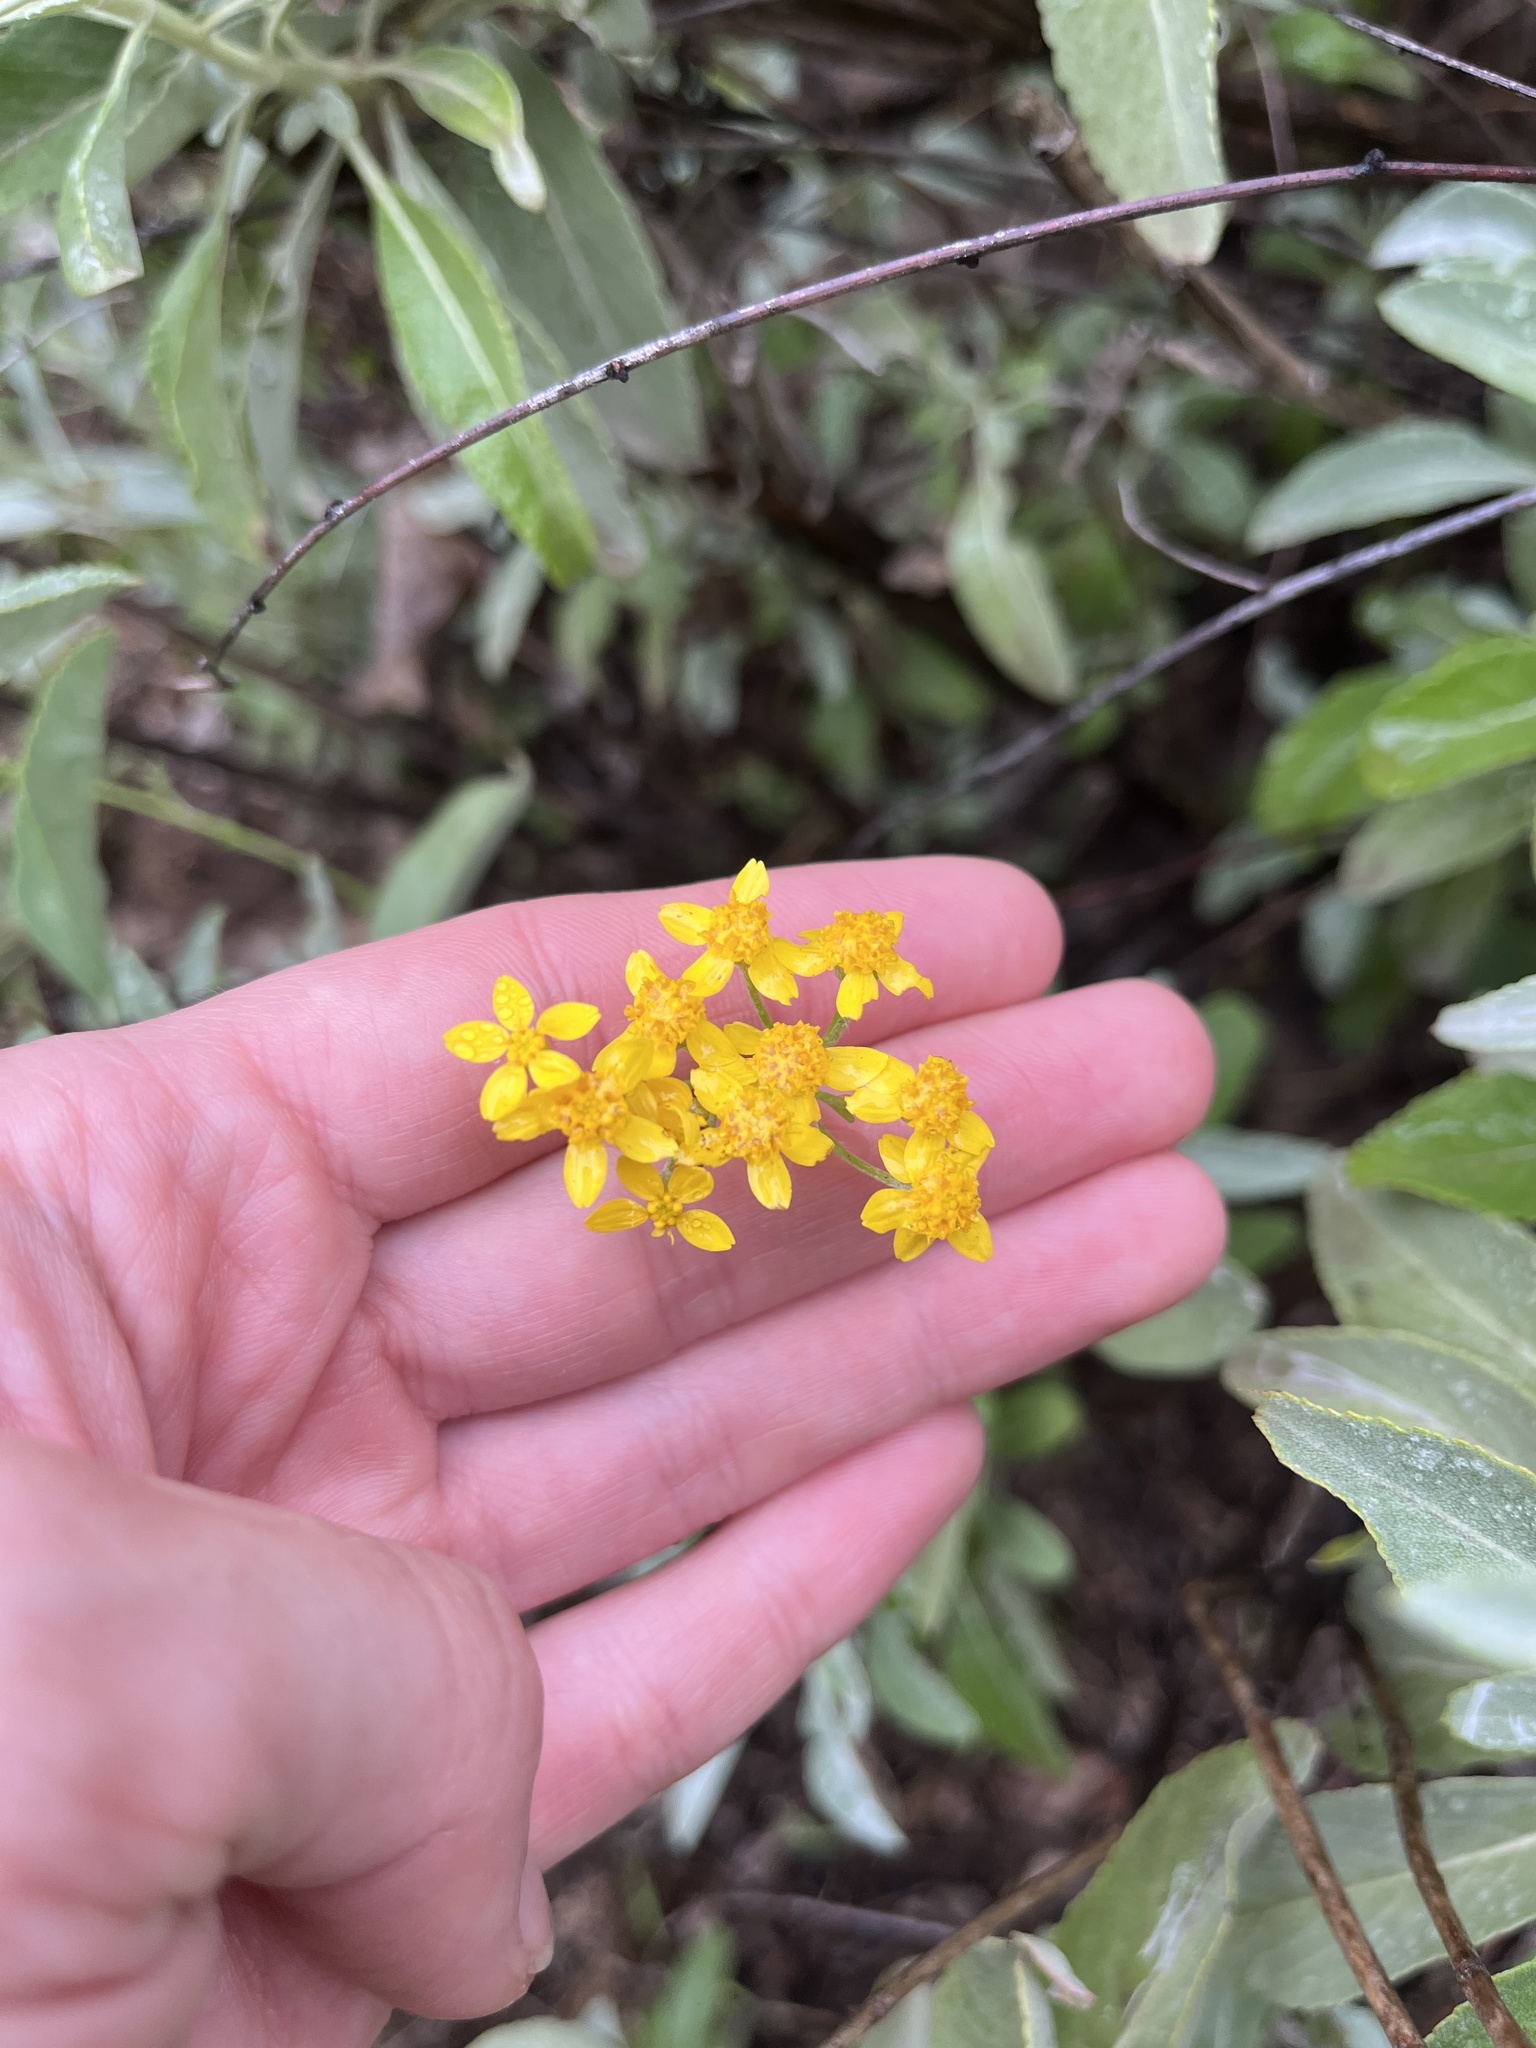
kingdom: Plantae
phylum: Tracheophyta
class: Magnoliopsida
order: Asterales
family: Asteraceae
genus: Eriophyllum
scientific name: Eriophyllum confertiflorum
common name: Golden-yarrow
